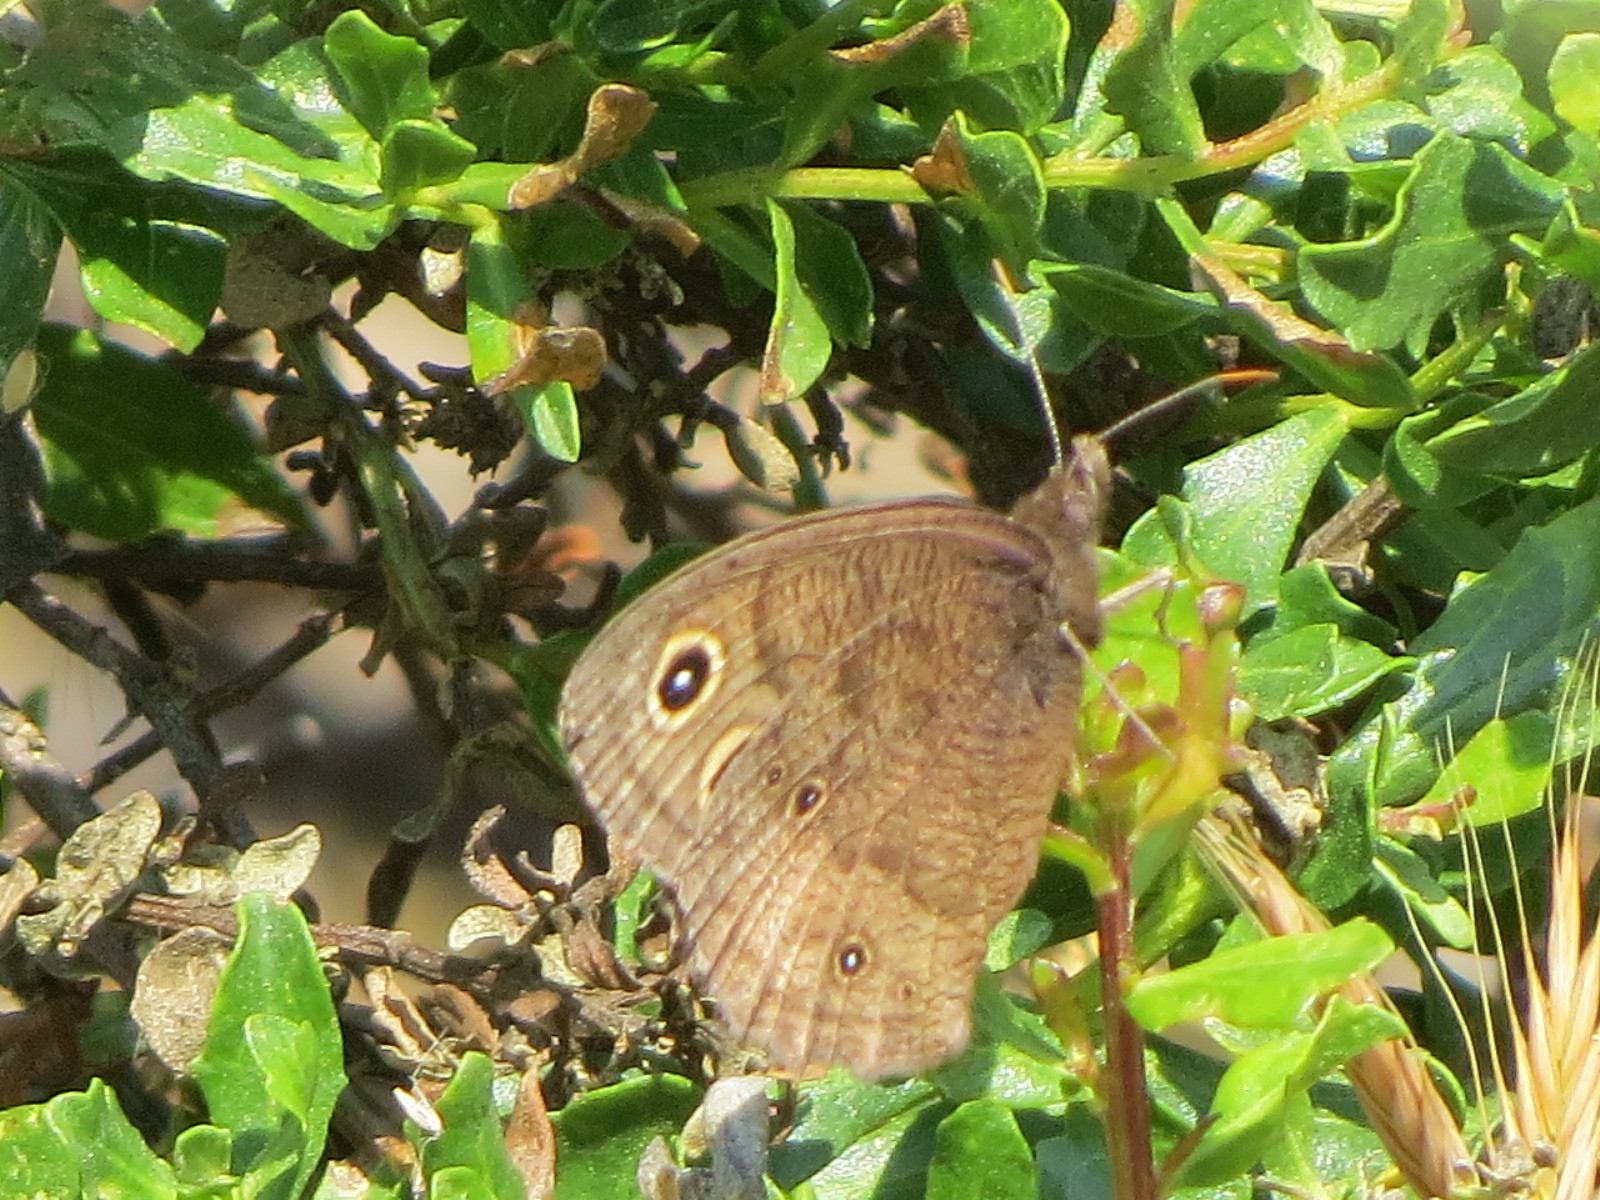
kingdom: Animalia
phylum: Arthropoda
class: Insecta
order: Lepidoptera
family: Nymphalidae
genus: Cercyonis
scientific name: Cercyonis pegala
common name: Common wood-nymph
